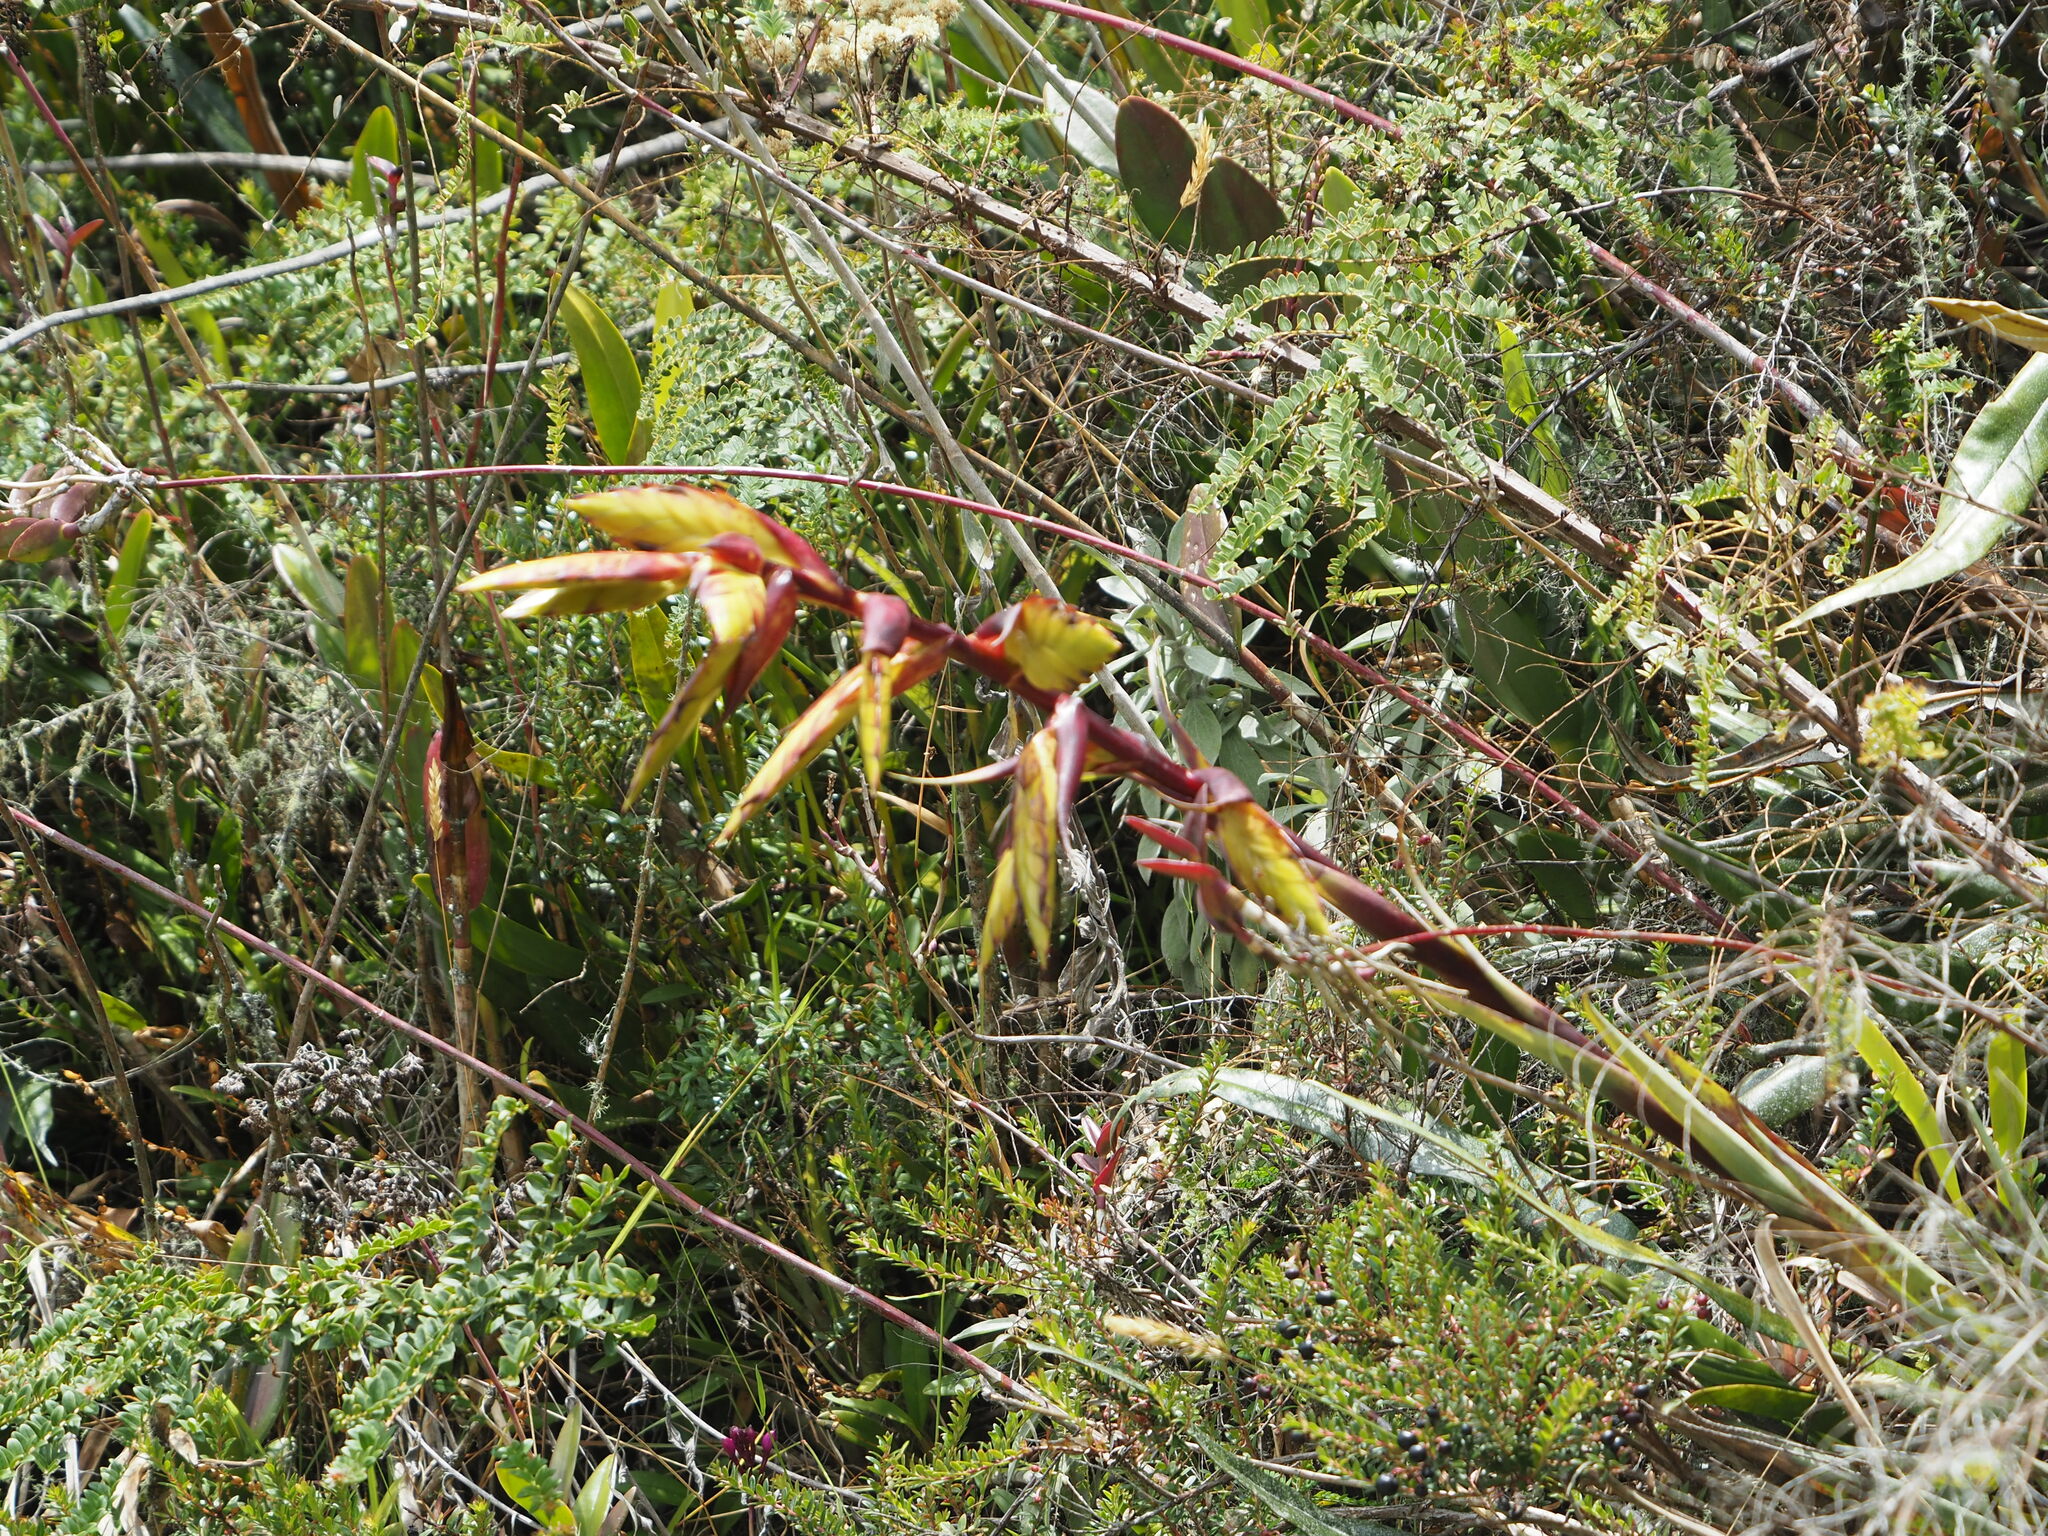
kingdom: Plantae
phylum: Tracheophyta
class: Liliopsida
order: Poales
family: Bromeliaceae
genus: Tillandsia
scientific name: Tillandsia lajensis
